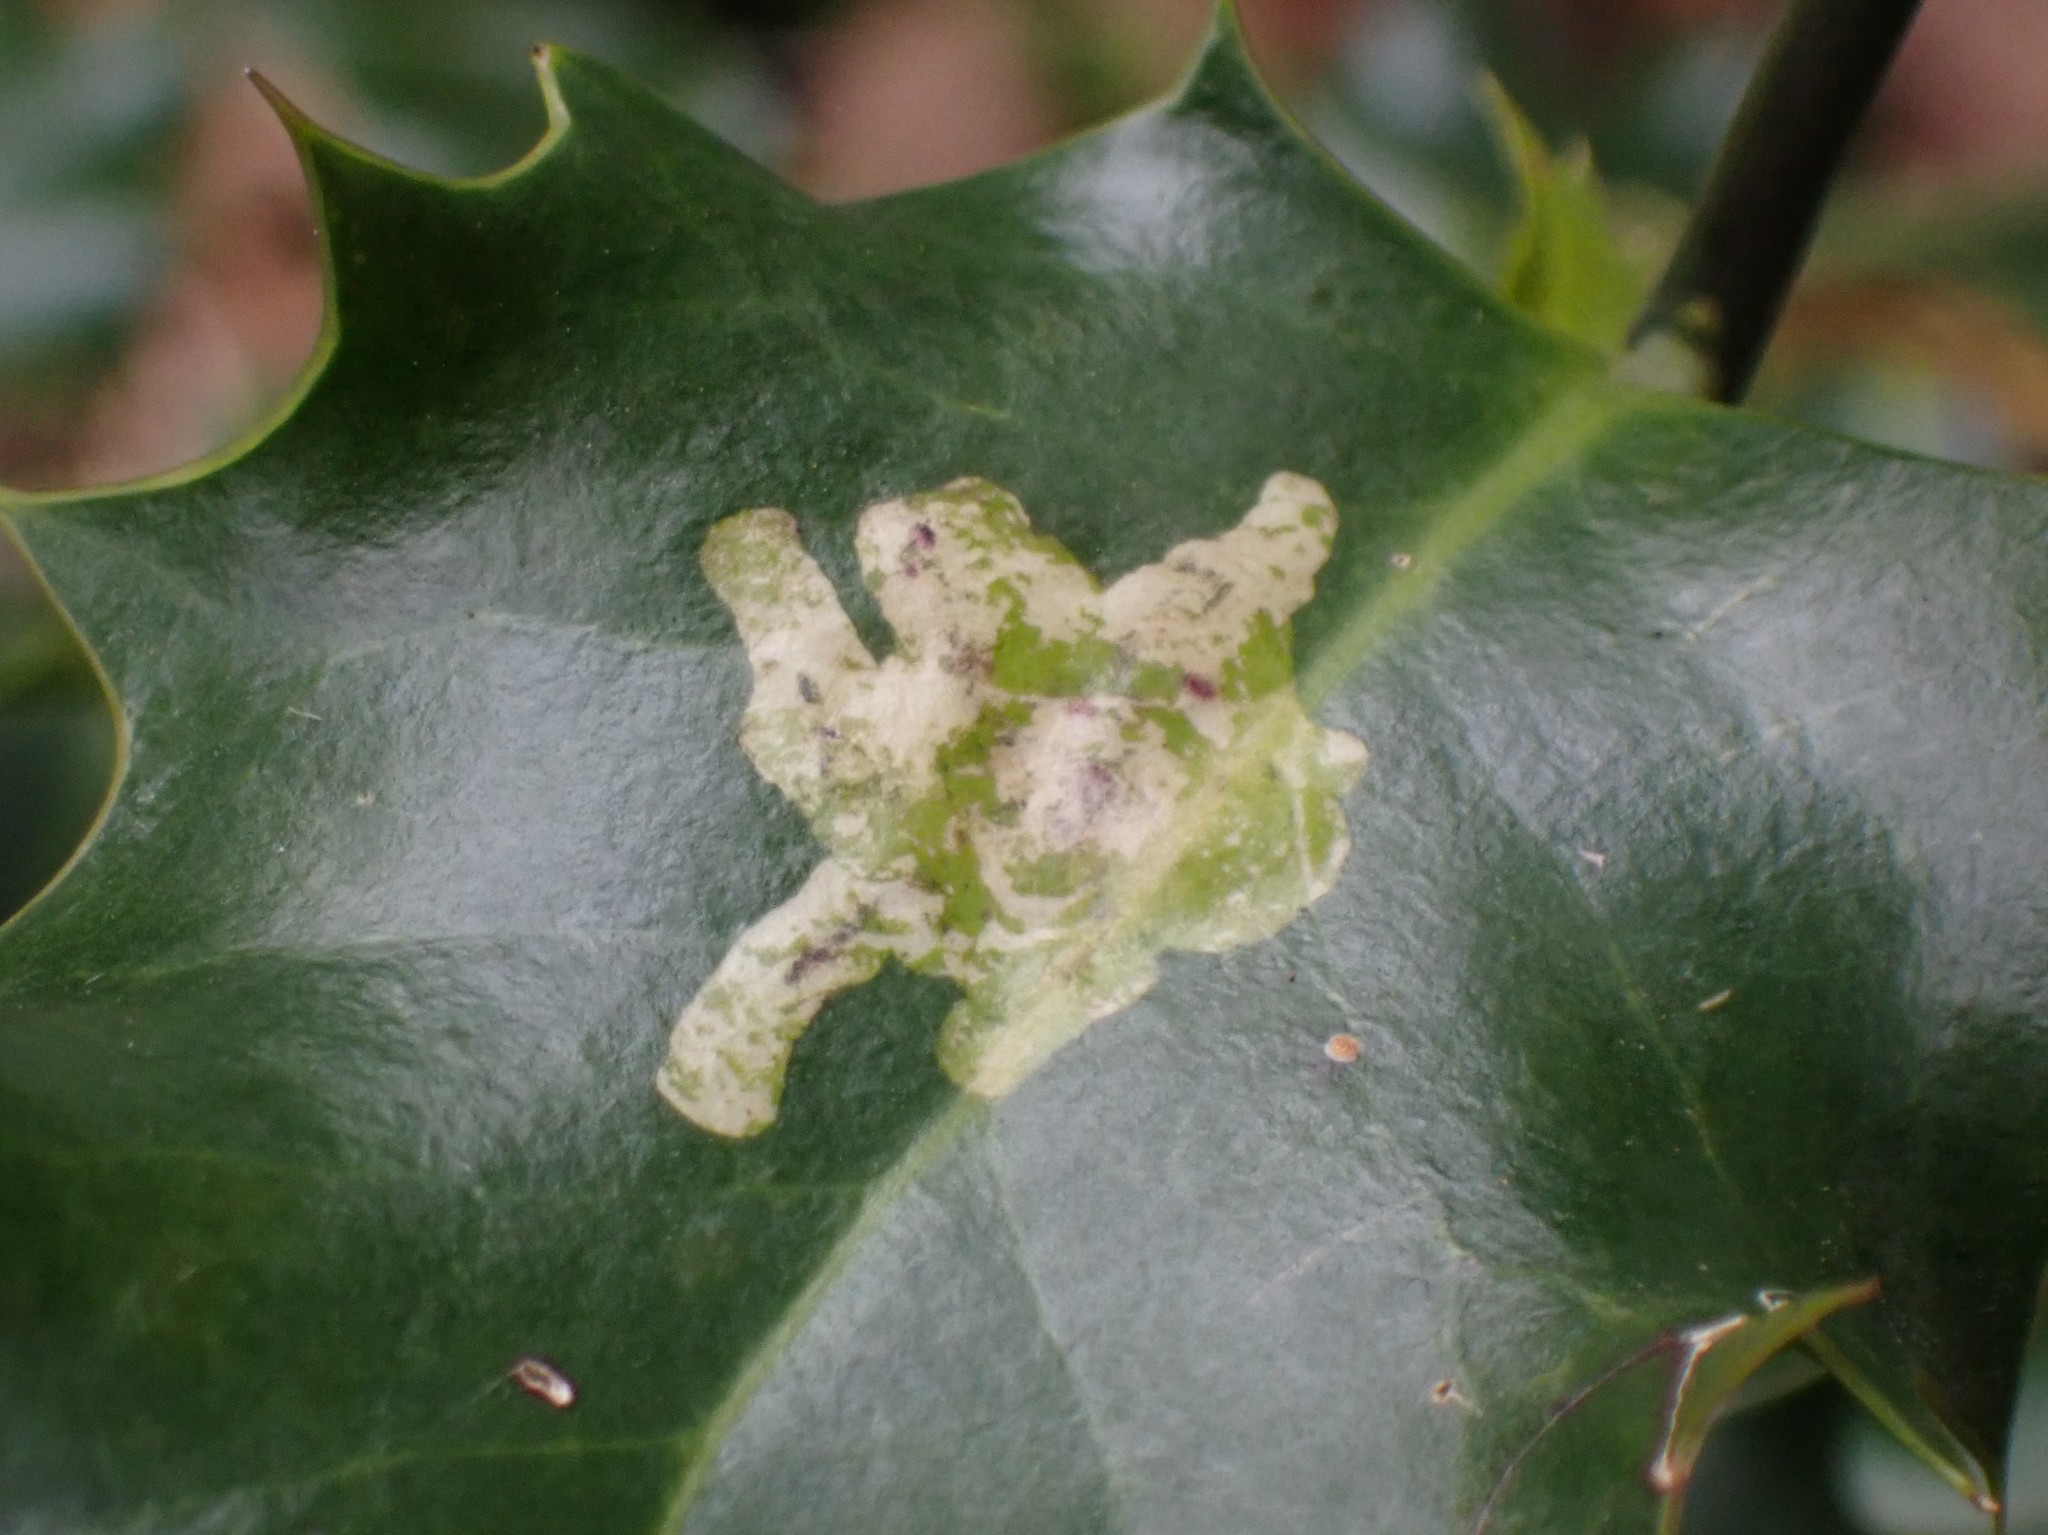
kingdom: Animalia
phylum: Arthropoda
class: Insecta
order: Diptera
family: Agromyzidae
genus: Phytomyza
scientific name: Phytomyza ilicis
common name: Holly leafminer
